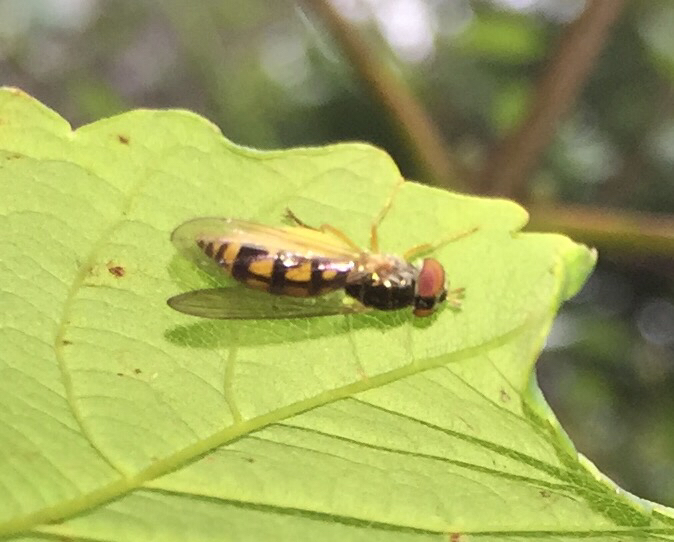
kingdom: Animalia
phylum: Arthropoda
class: Insecta
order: Diptera
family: Syrphidae
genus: Melanostoma
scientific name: Melanostoma scalare
